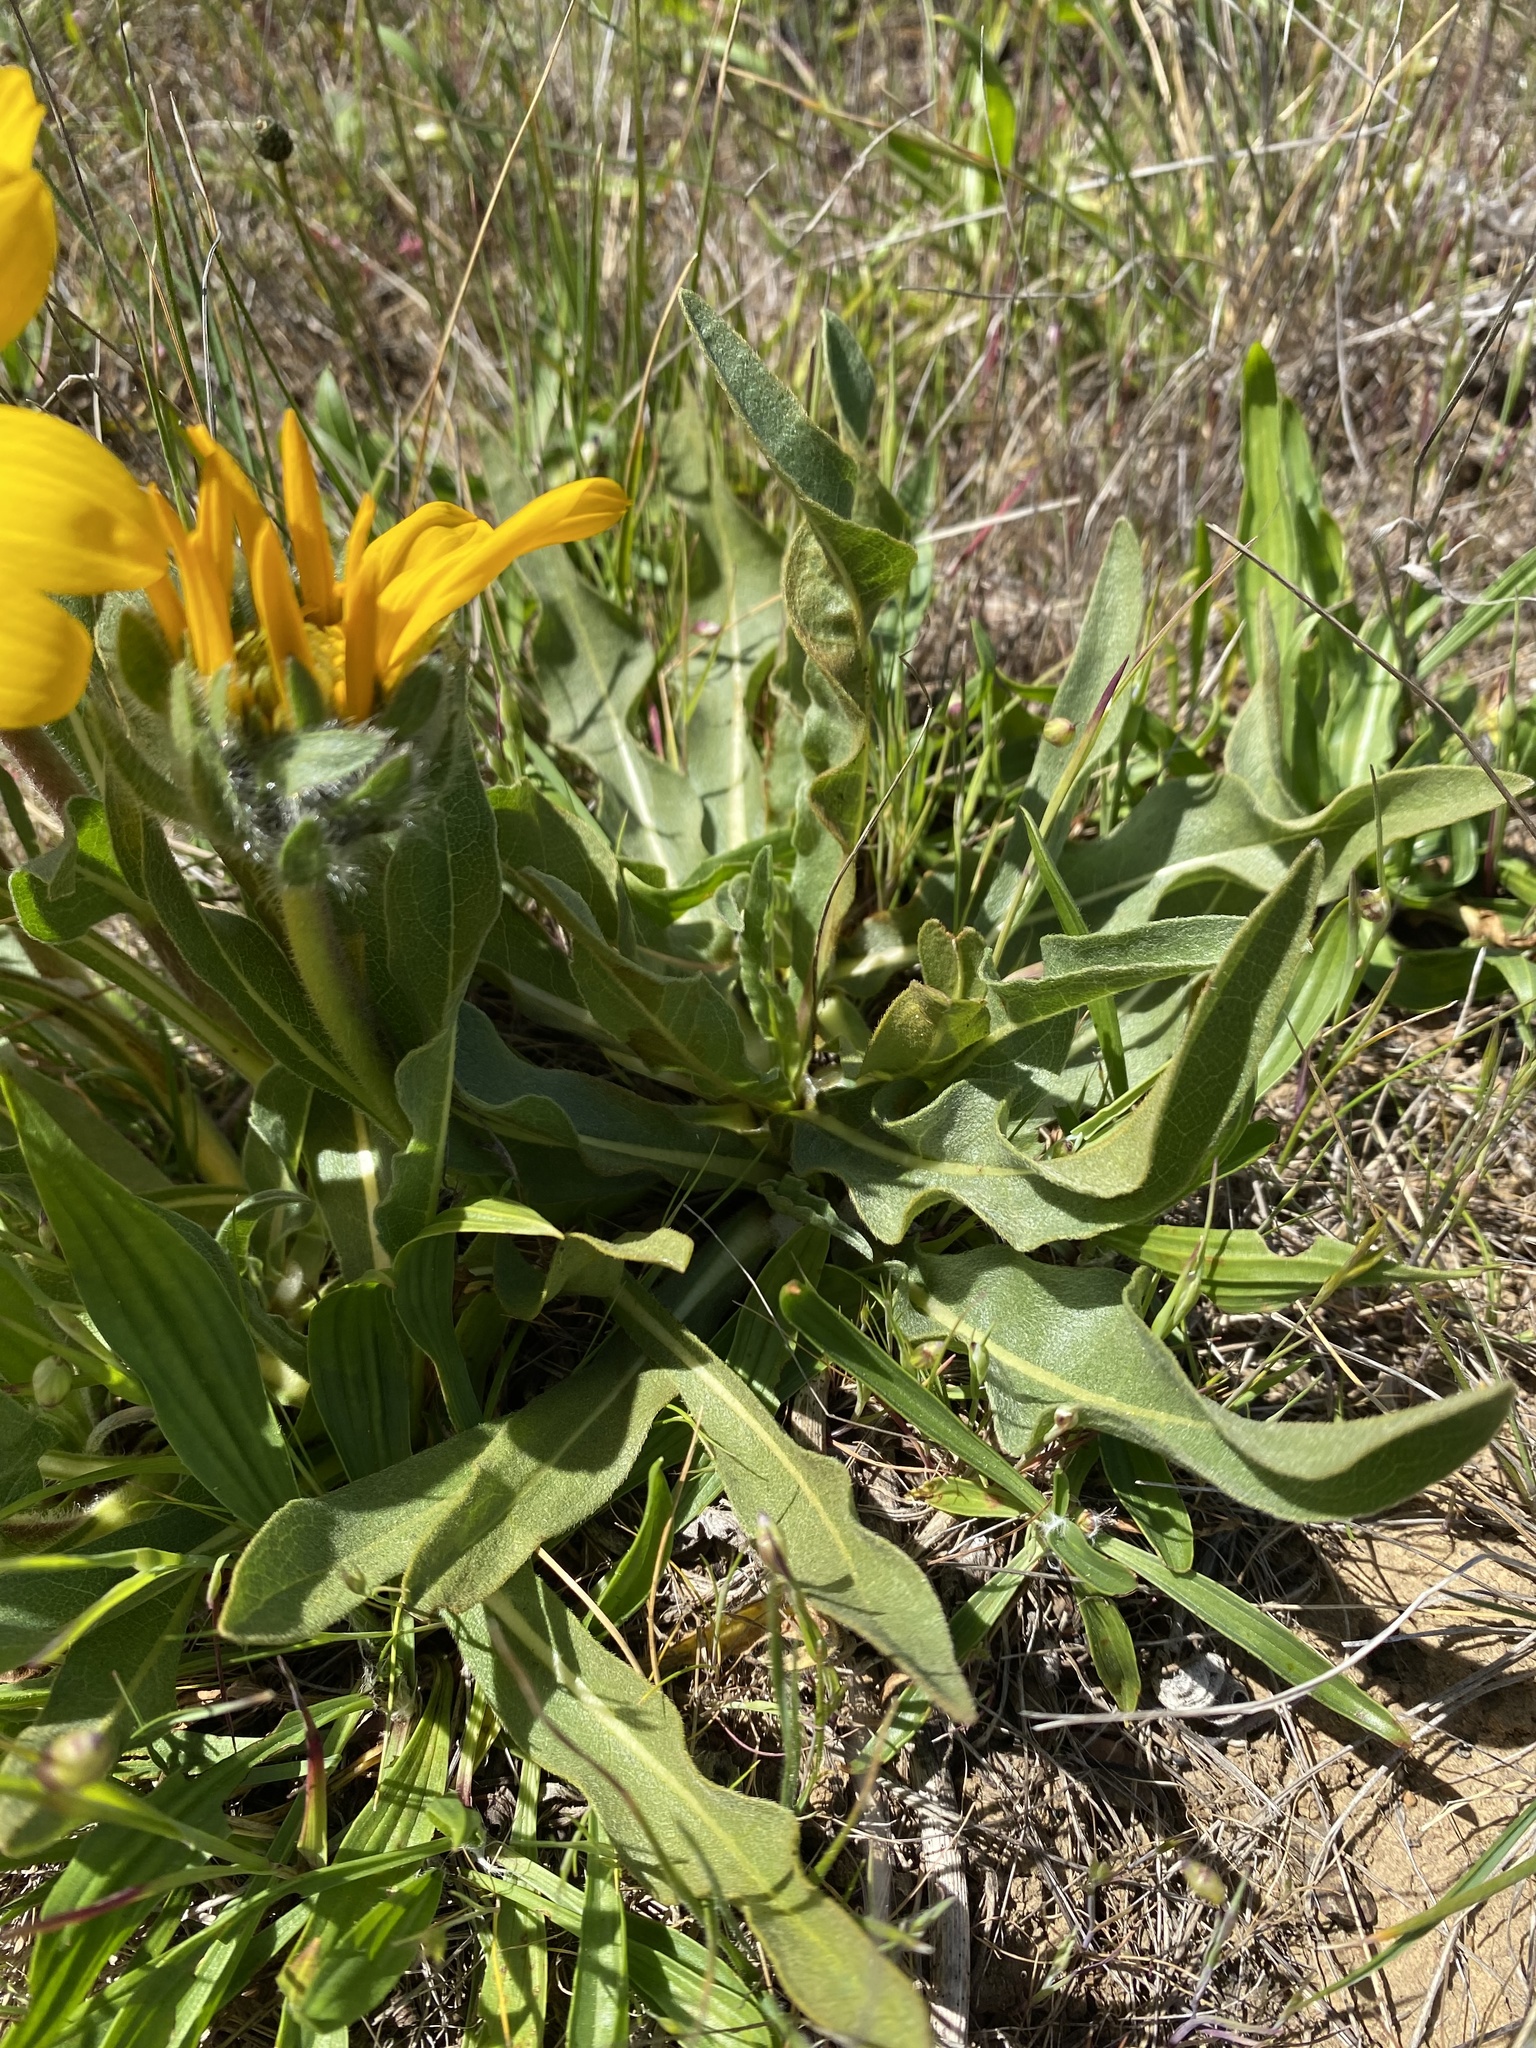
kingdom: Plantae
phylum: Tracheophyta
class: Magnoliopsida
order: Asterales
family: Asteraceae
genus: Wyethia
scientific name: Wyethia angustifolia
